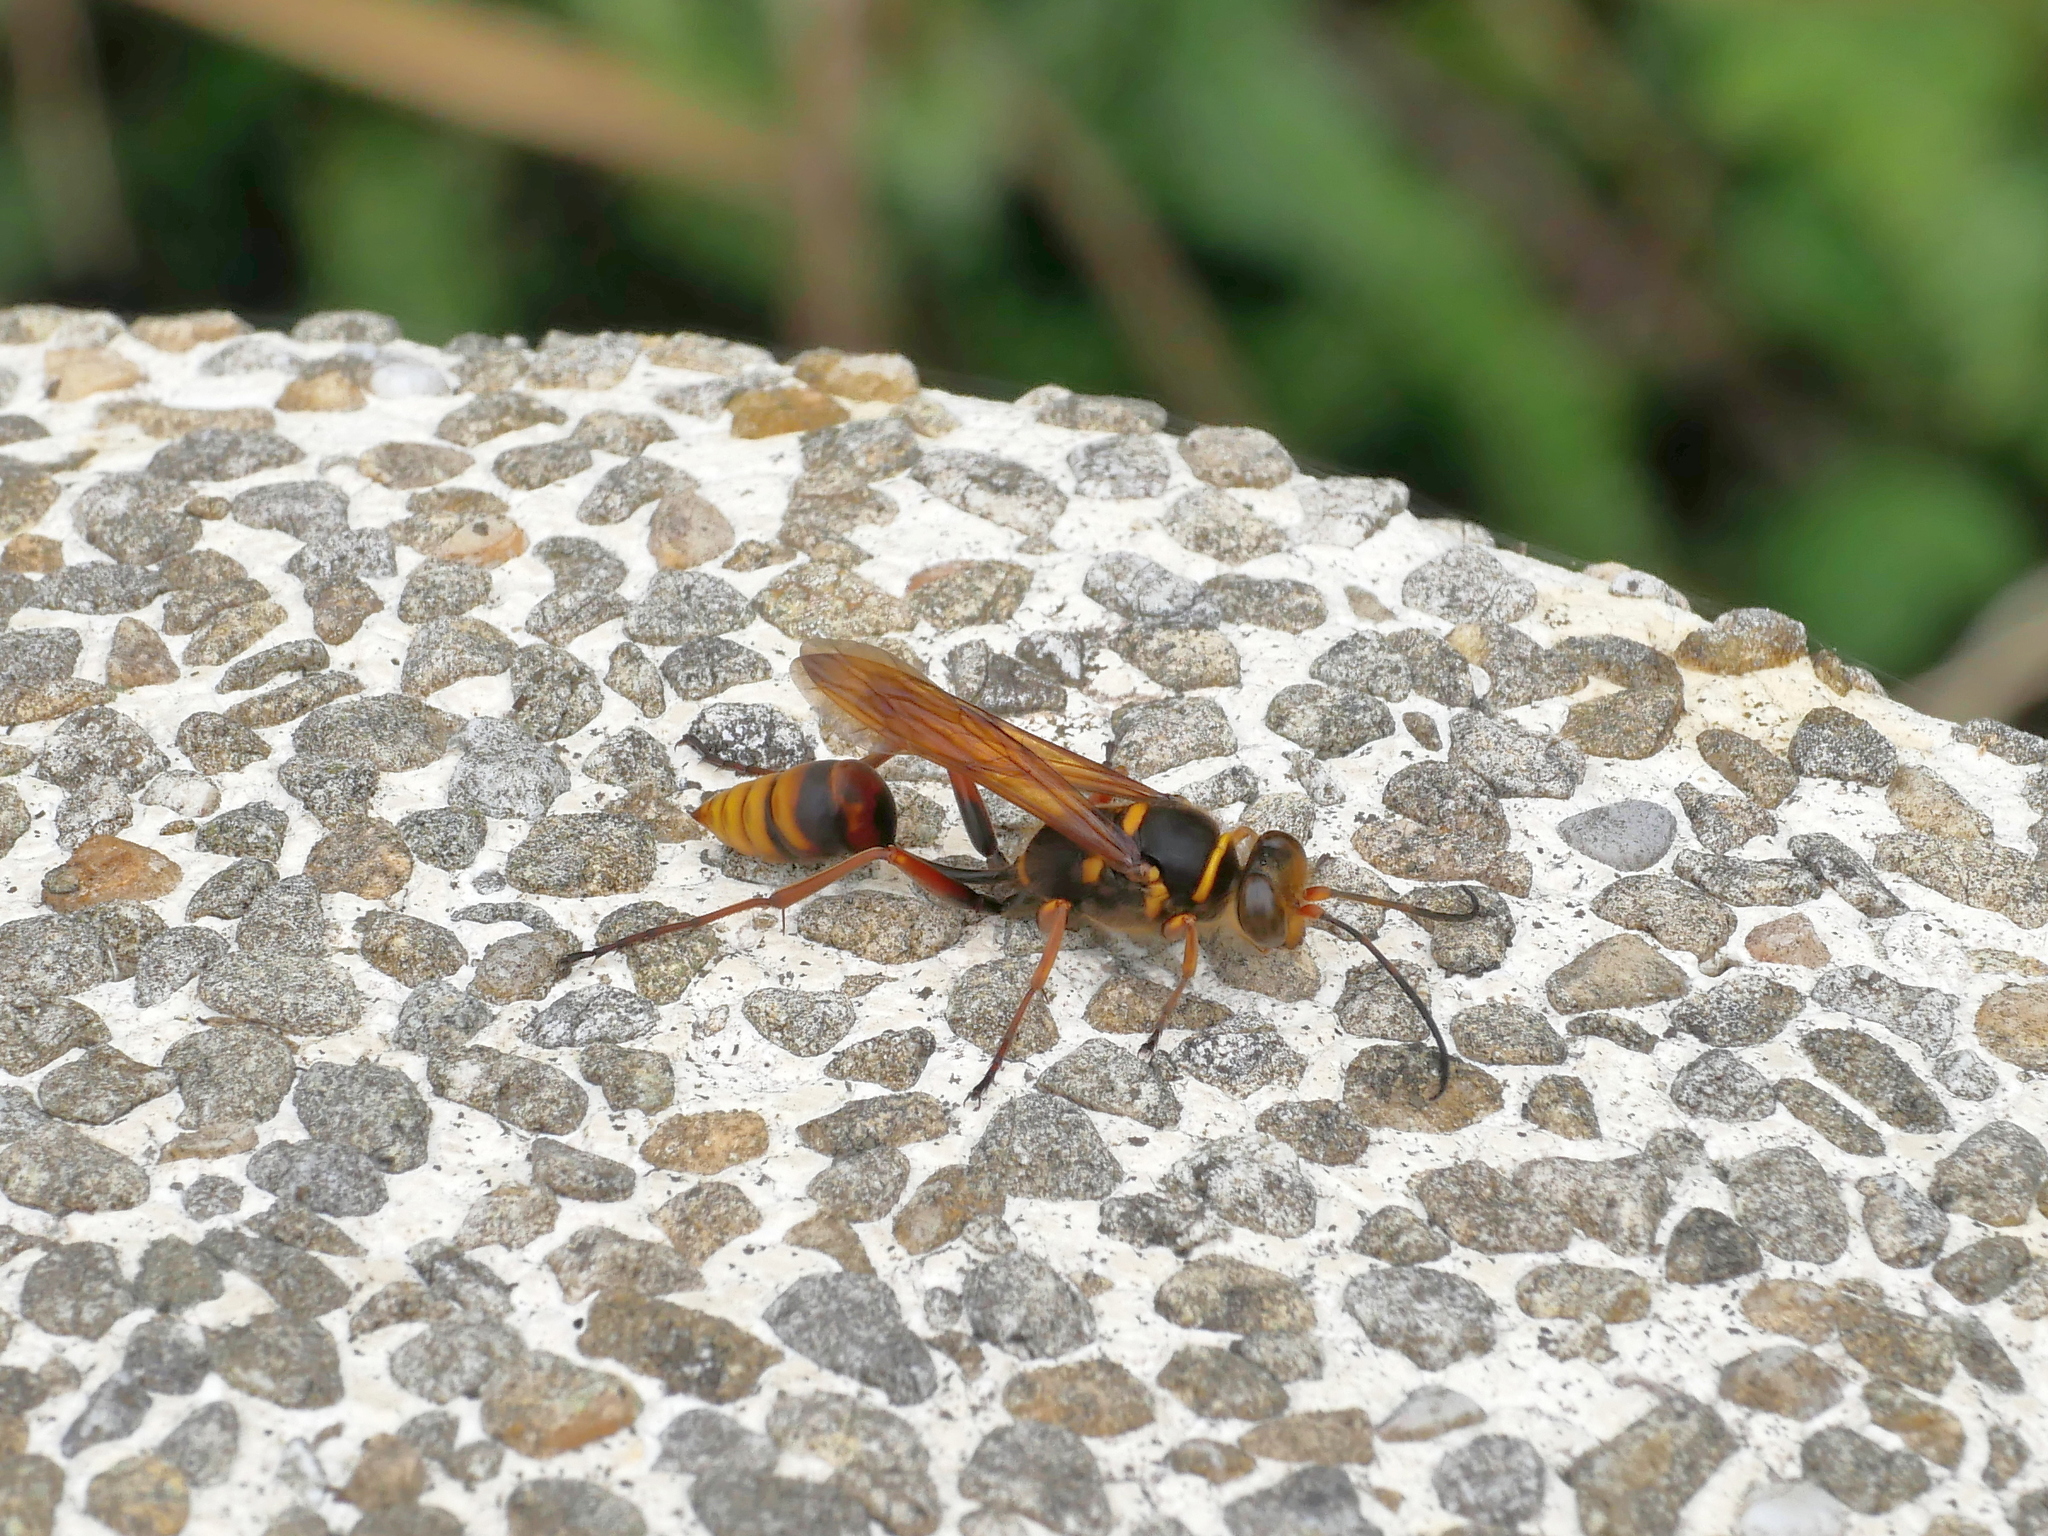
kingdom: Animalia
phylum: Arthropoda
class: Insecta
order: Hymenoptera
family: Sphecidae
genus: Sceliphron
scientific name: Sceliphron deforme
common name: Pelopèe
